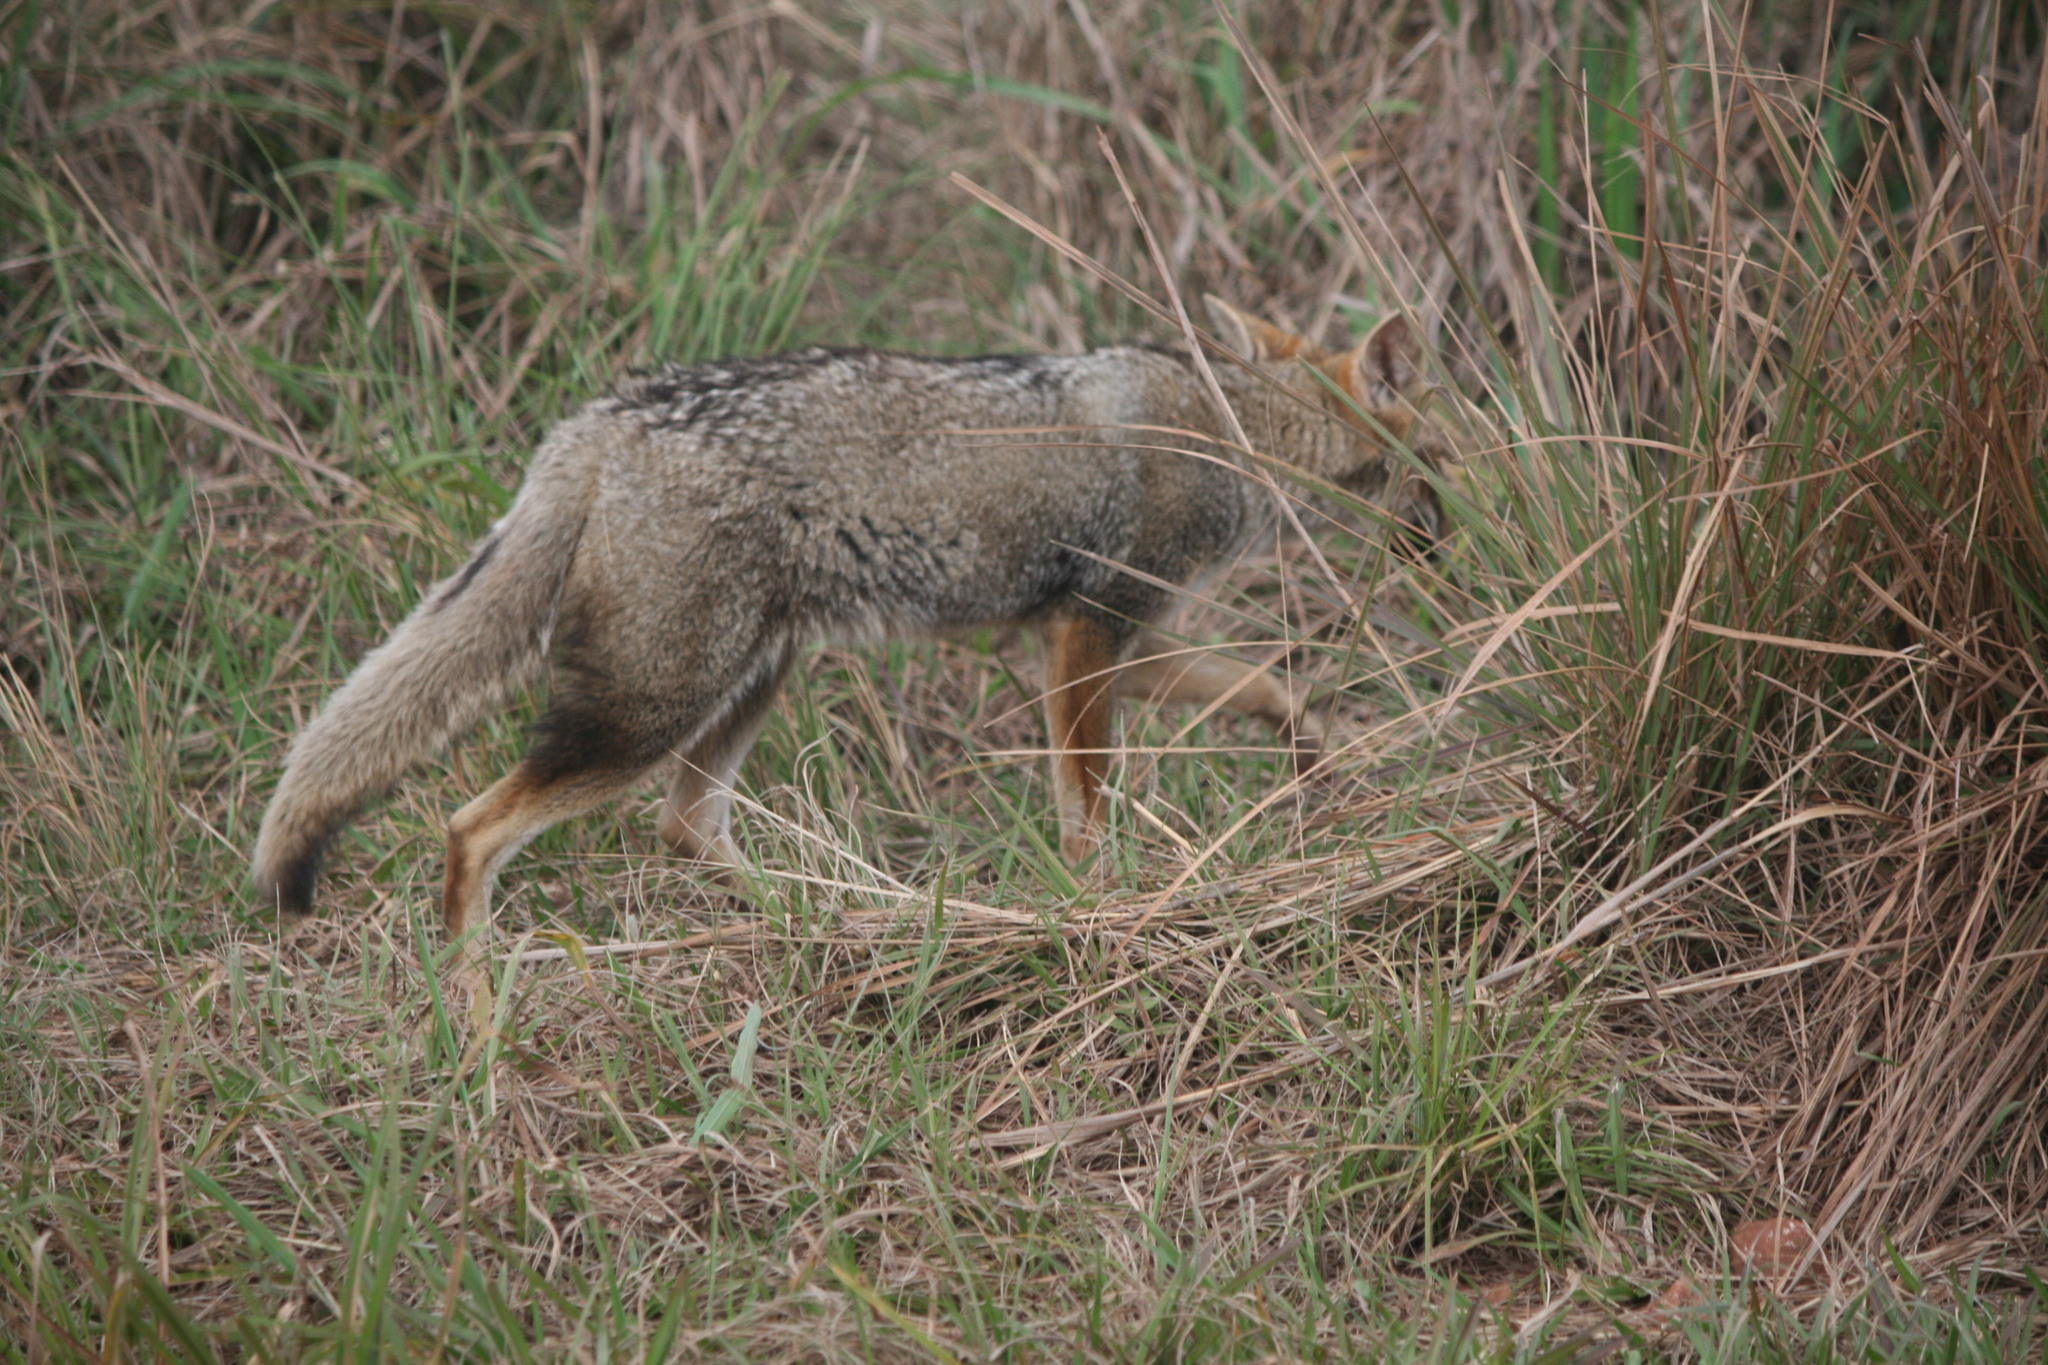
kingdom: Animalia
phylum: Chordata
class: Mammalia
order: Carnivora
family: Canidae
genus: Lycalopex
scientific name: Lycalopex gymnocercus
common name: Pampas fox
